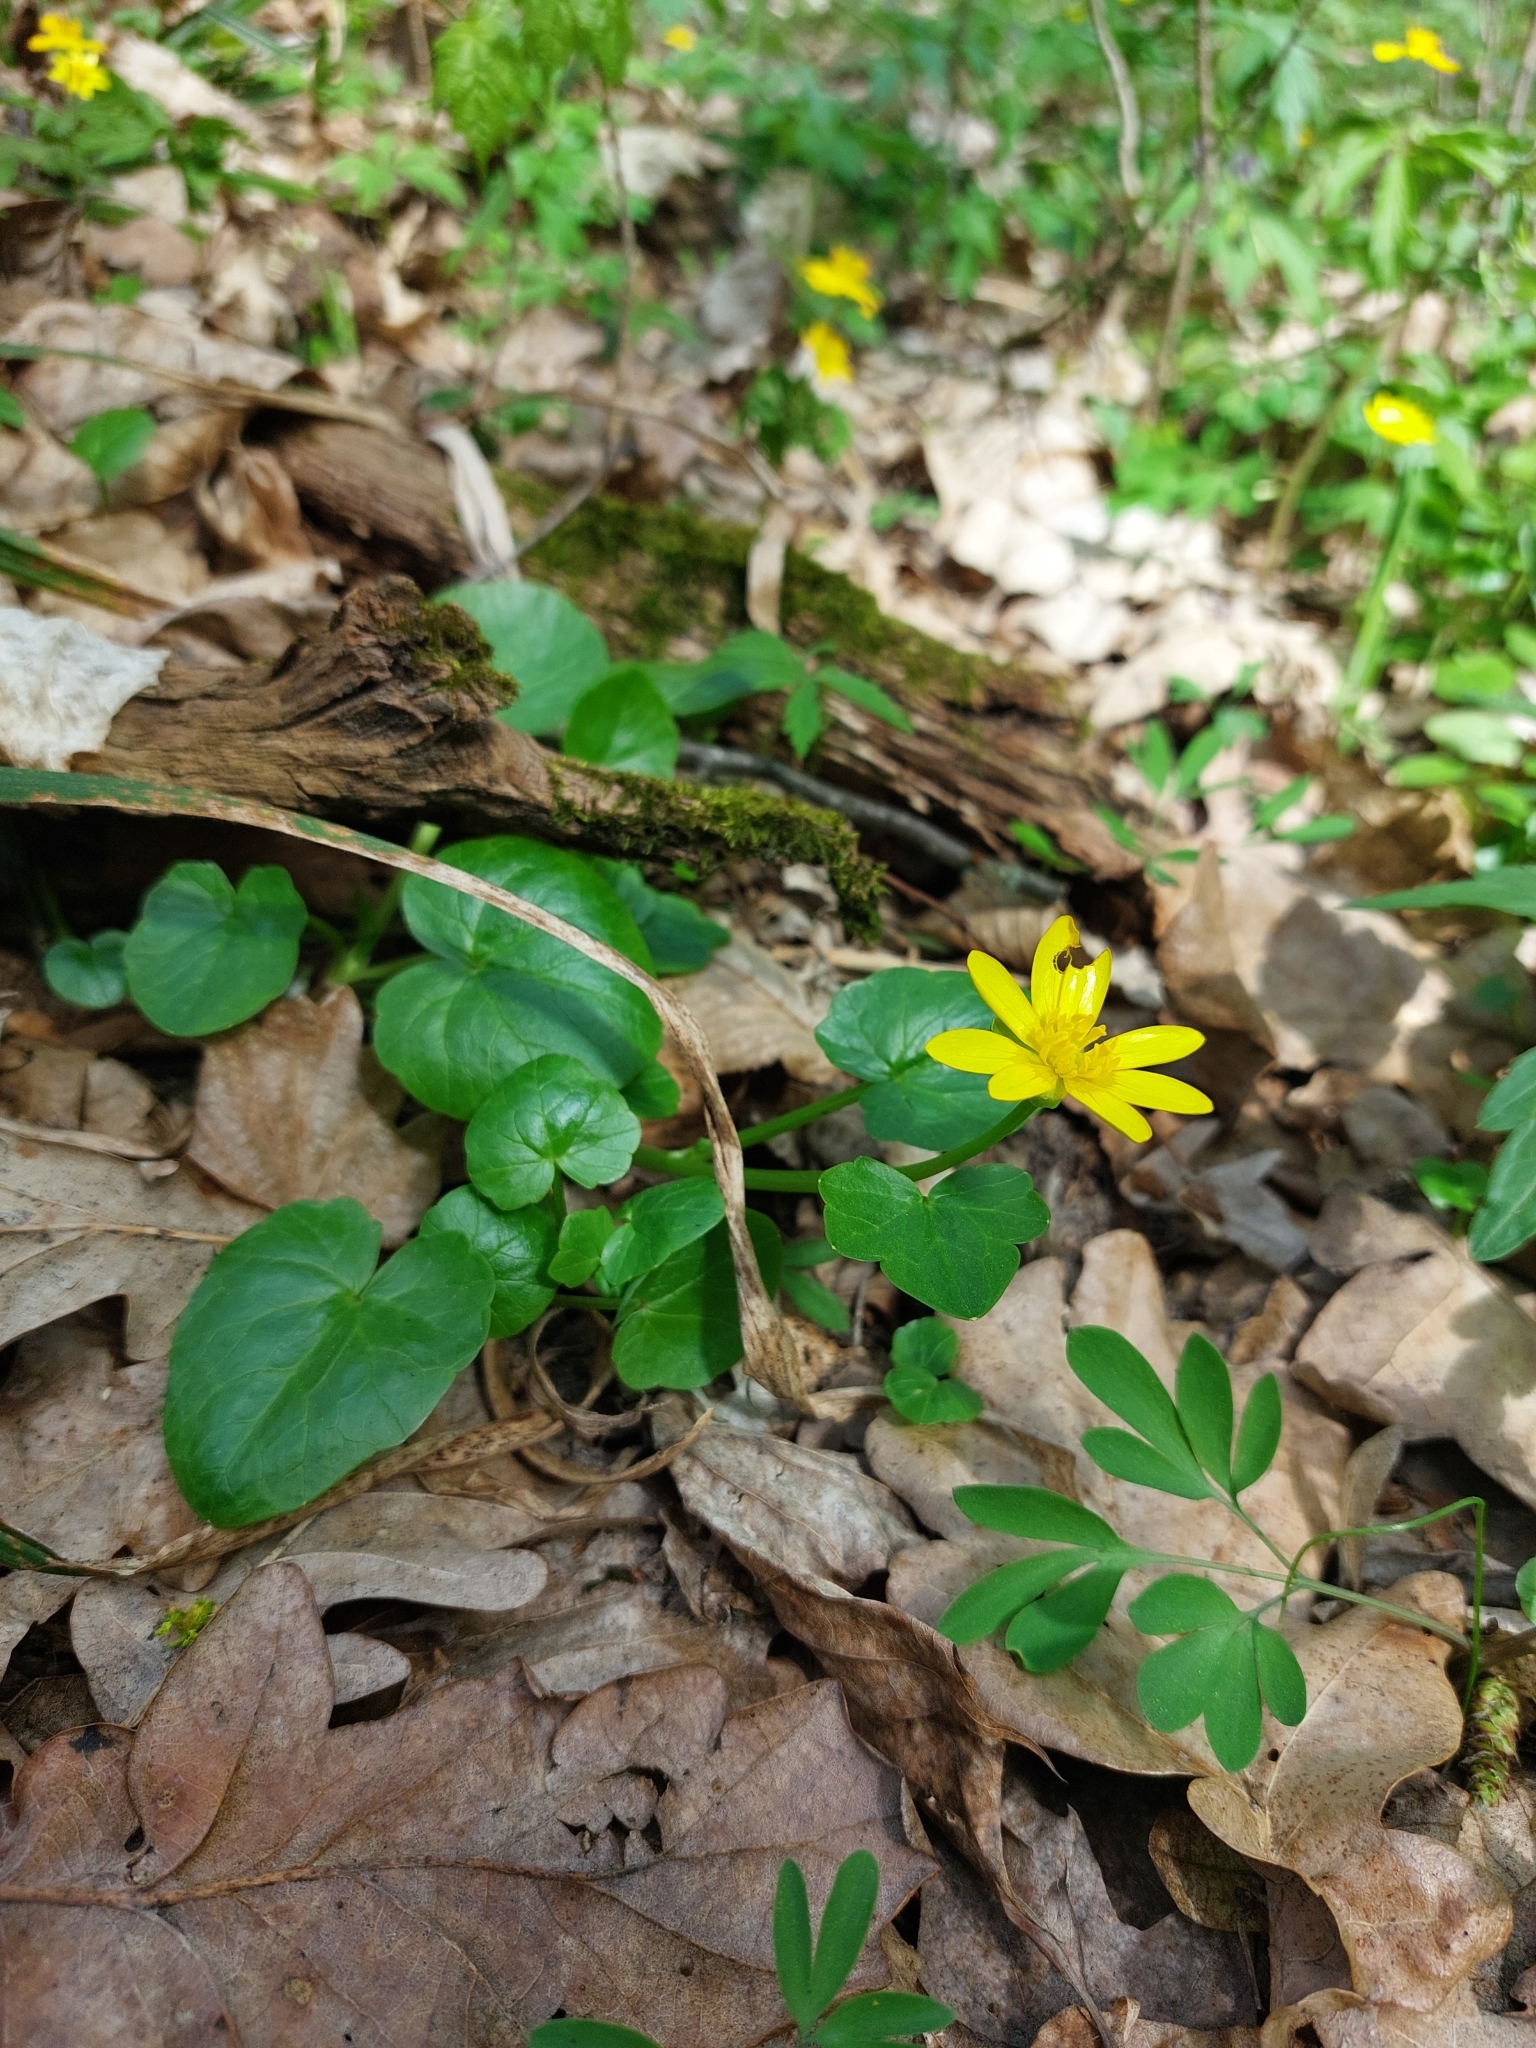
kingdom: Plantae
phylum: Tracheophyta
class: Magnoliopsida
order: Ranunculales
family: Ranunculaceae
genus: Ficaria
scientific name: Ficaria verna
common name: Lesser celandine
